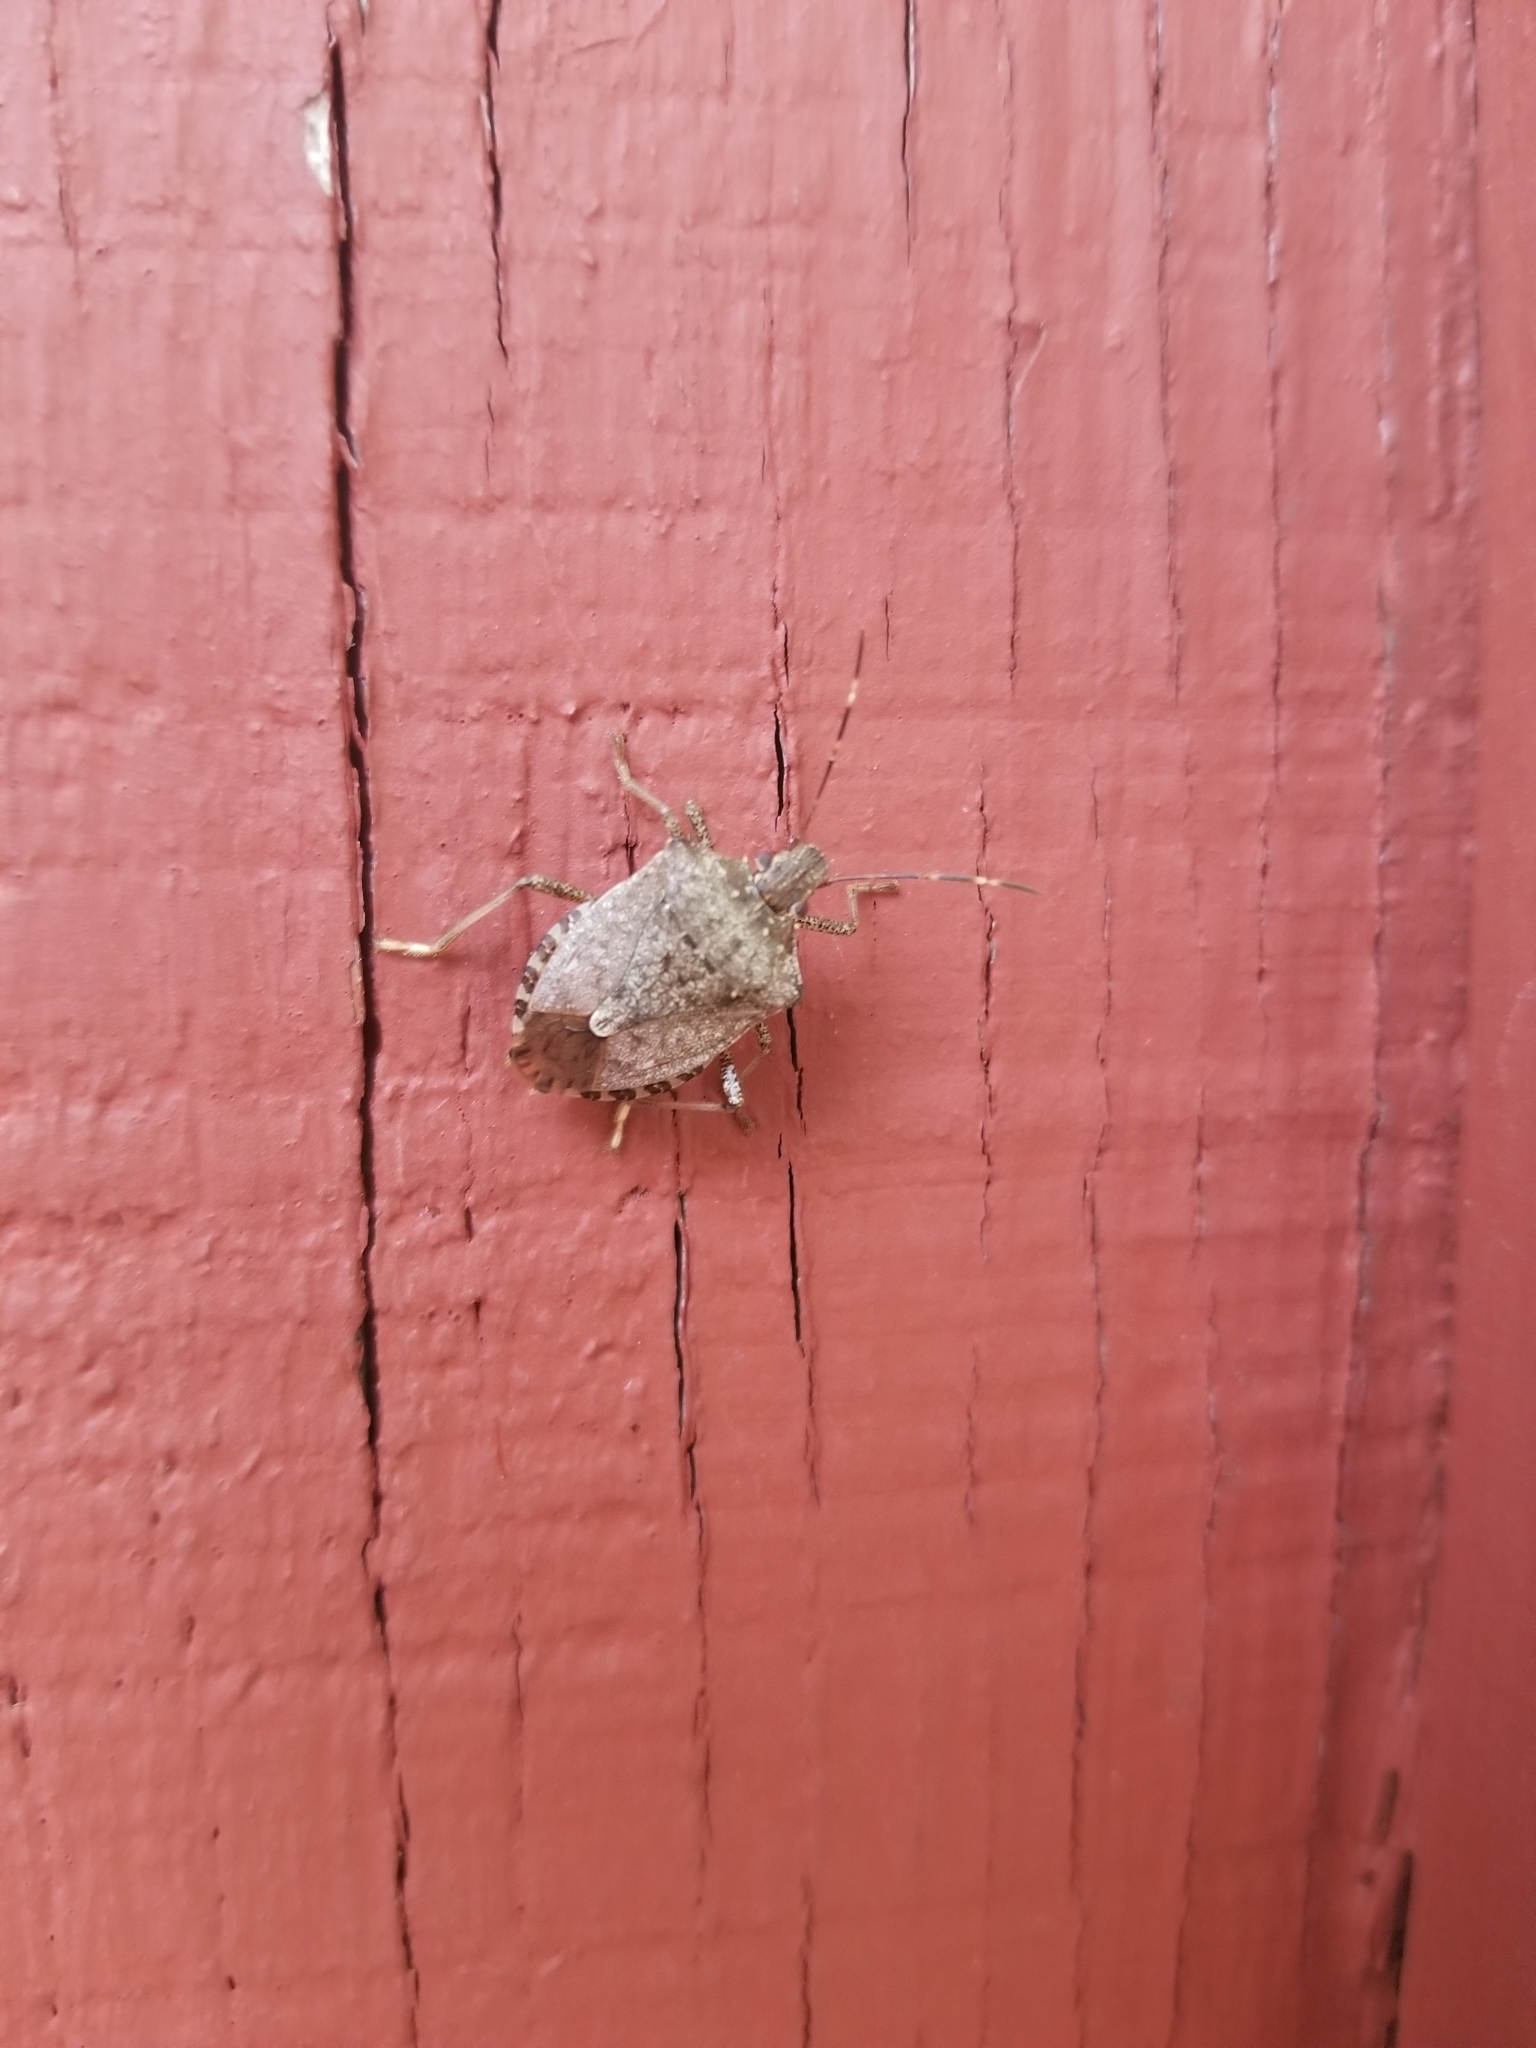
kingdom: Animalia
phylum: Arthropoda
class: Insecta
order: Hemiptera
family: Pentatomidae
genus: Halyomorpha
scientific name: Halyomorpha halys
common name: Brown marmorated stink bug
